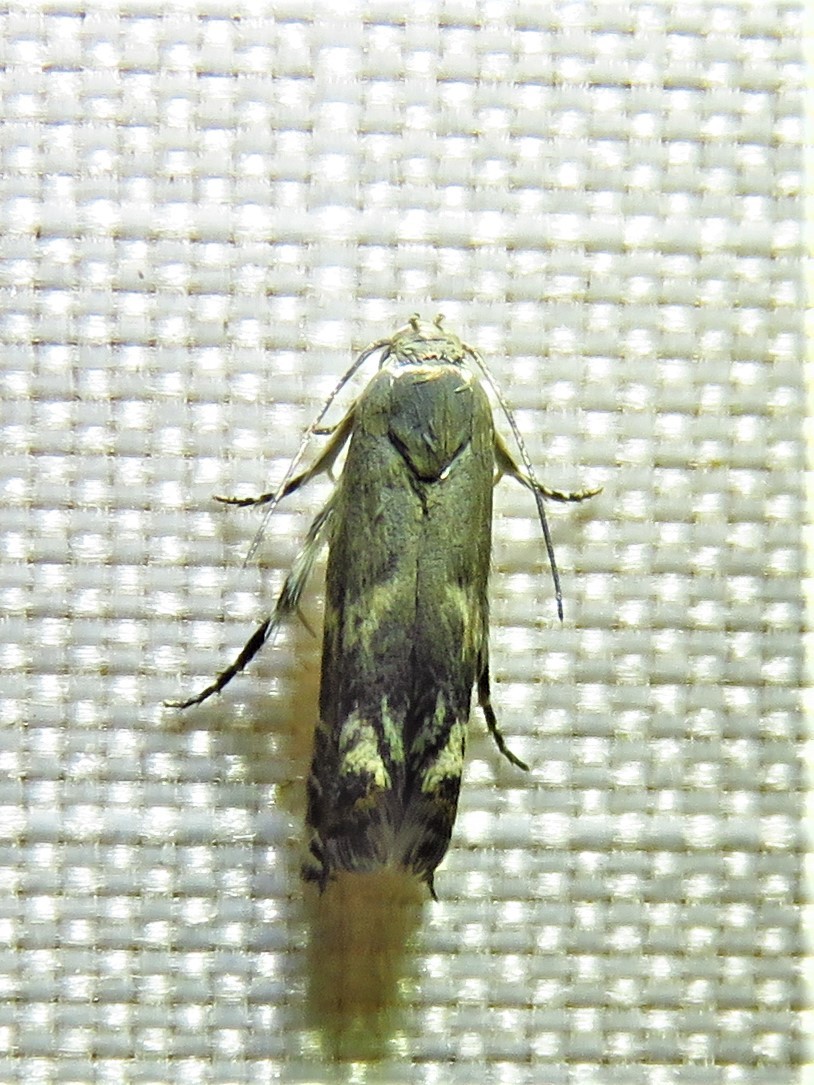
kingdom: Animalia
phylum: Arthropoda
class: Insecta
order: Lepidoptera
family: Gelechiidae
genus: Calliprora
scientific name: Calliprora sexstrigella
